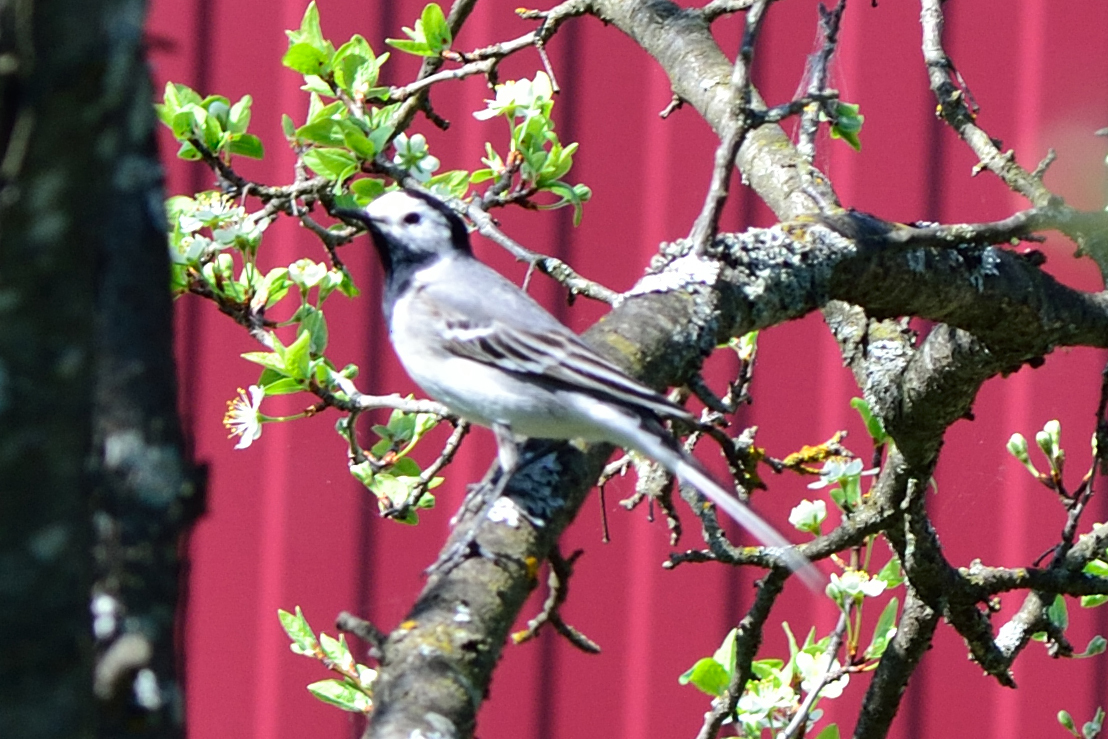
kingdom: Animalia
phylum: Chordata
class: Aves
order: Passeriformes
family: Motacillidae
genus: Motacilla
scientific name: Motacilla alba
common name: White wagtail
